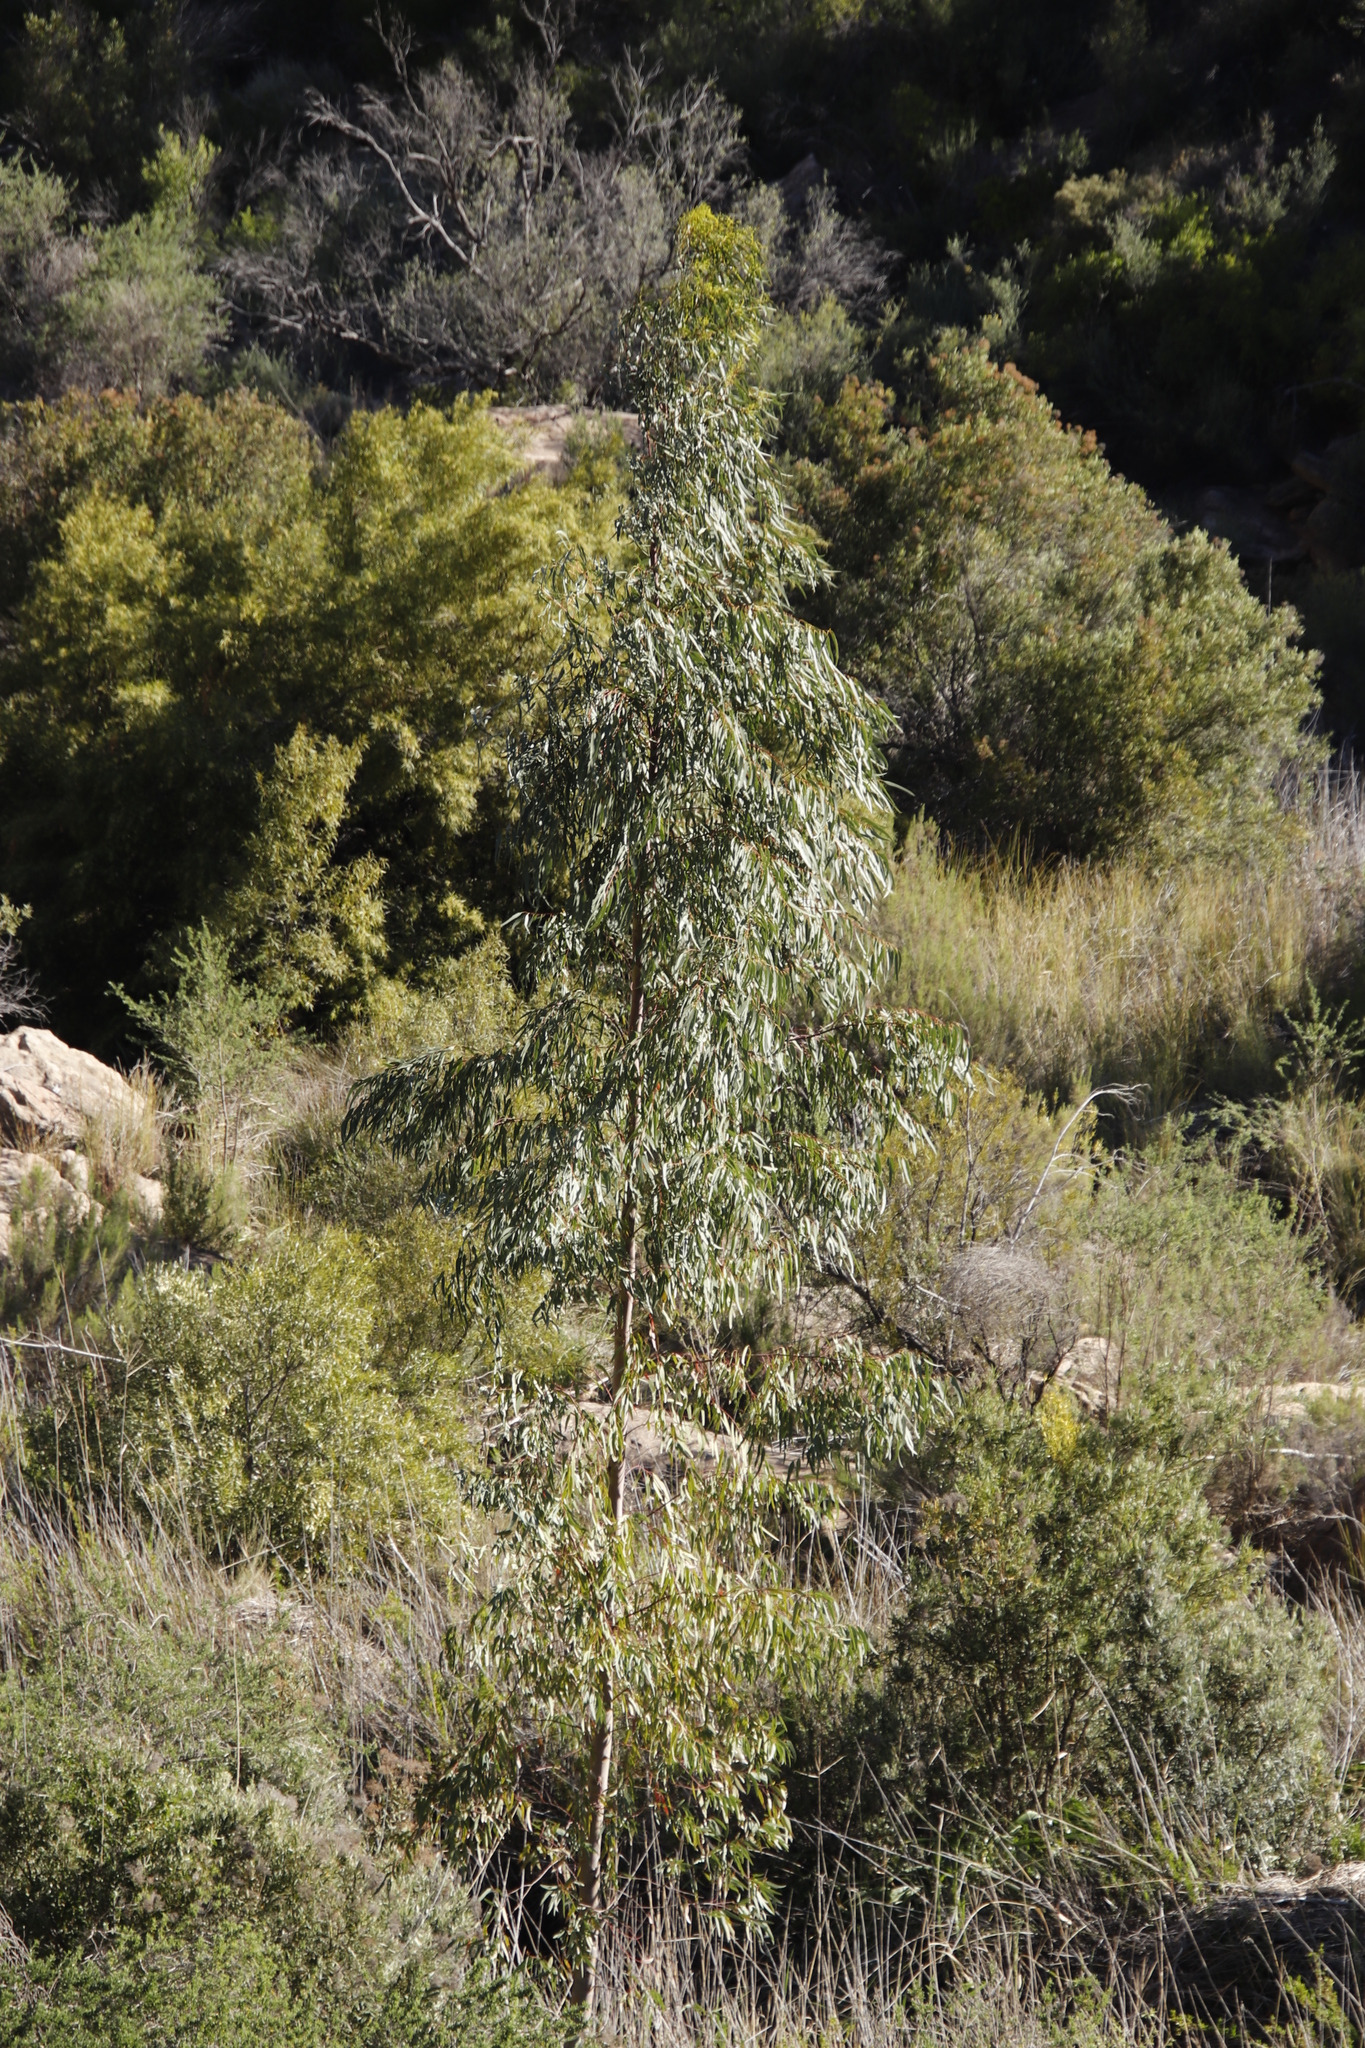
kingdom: Plantae
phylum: Tracheophyta
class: Magnoliopsida
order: Myrtales
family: Myrtaceae
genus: Eucalyptus
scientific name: Eucalyptus camaldulensis
